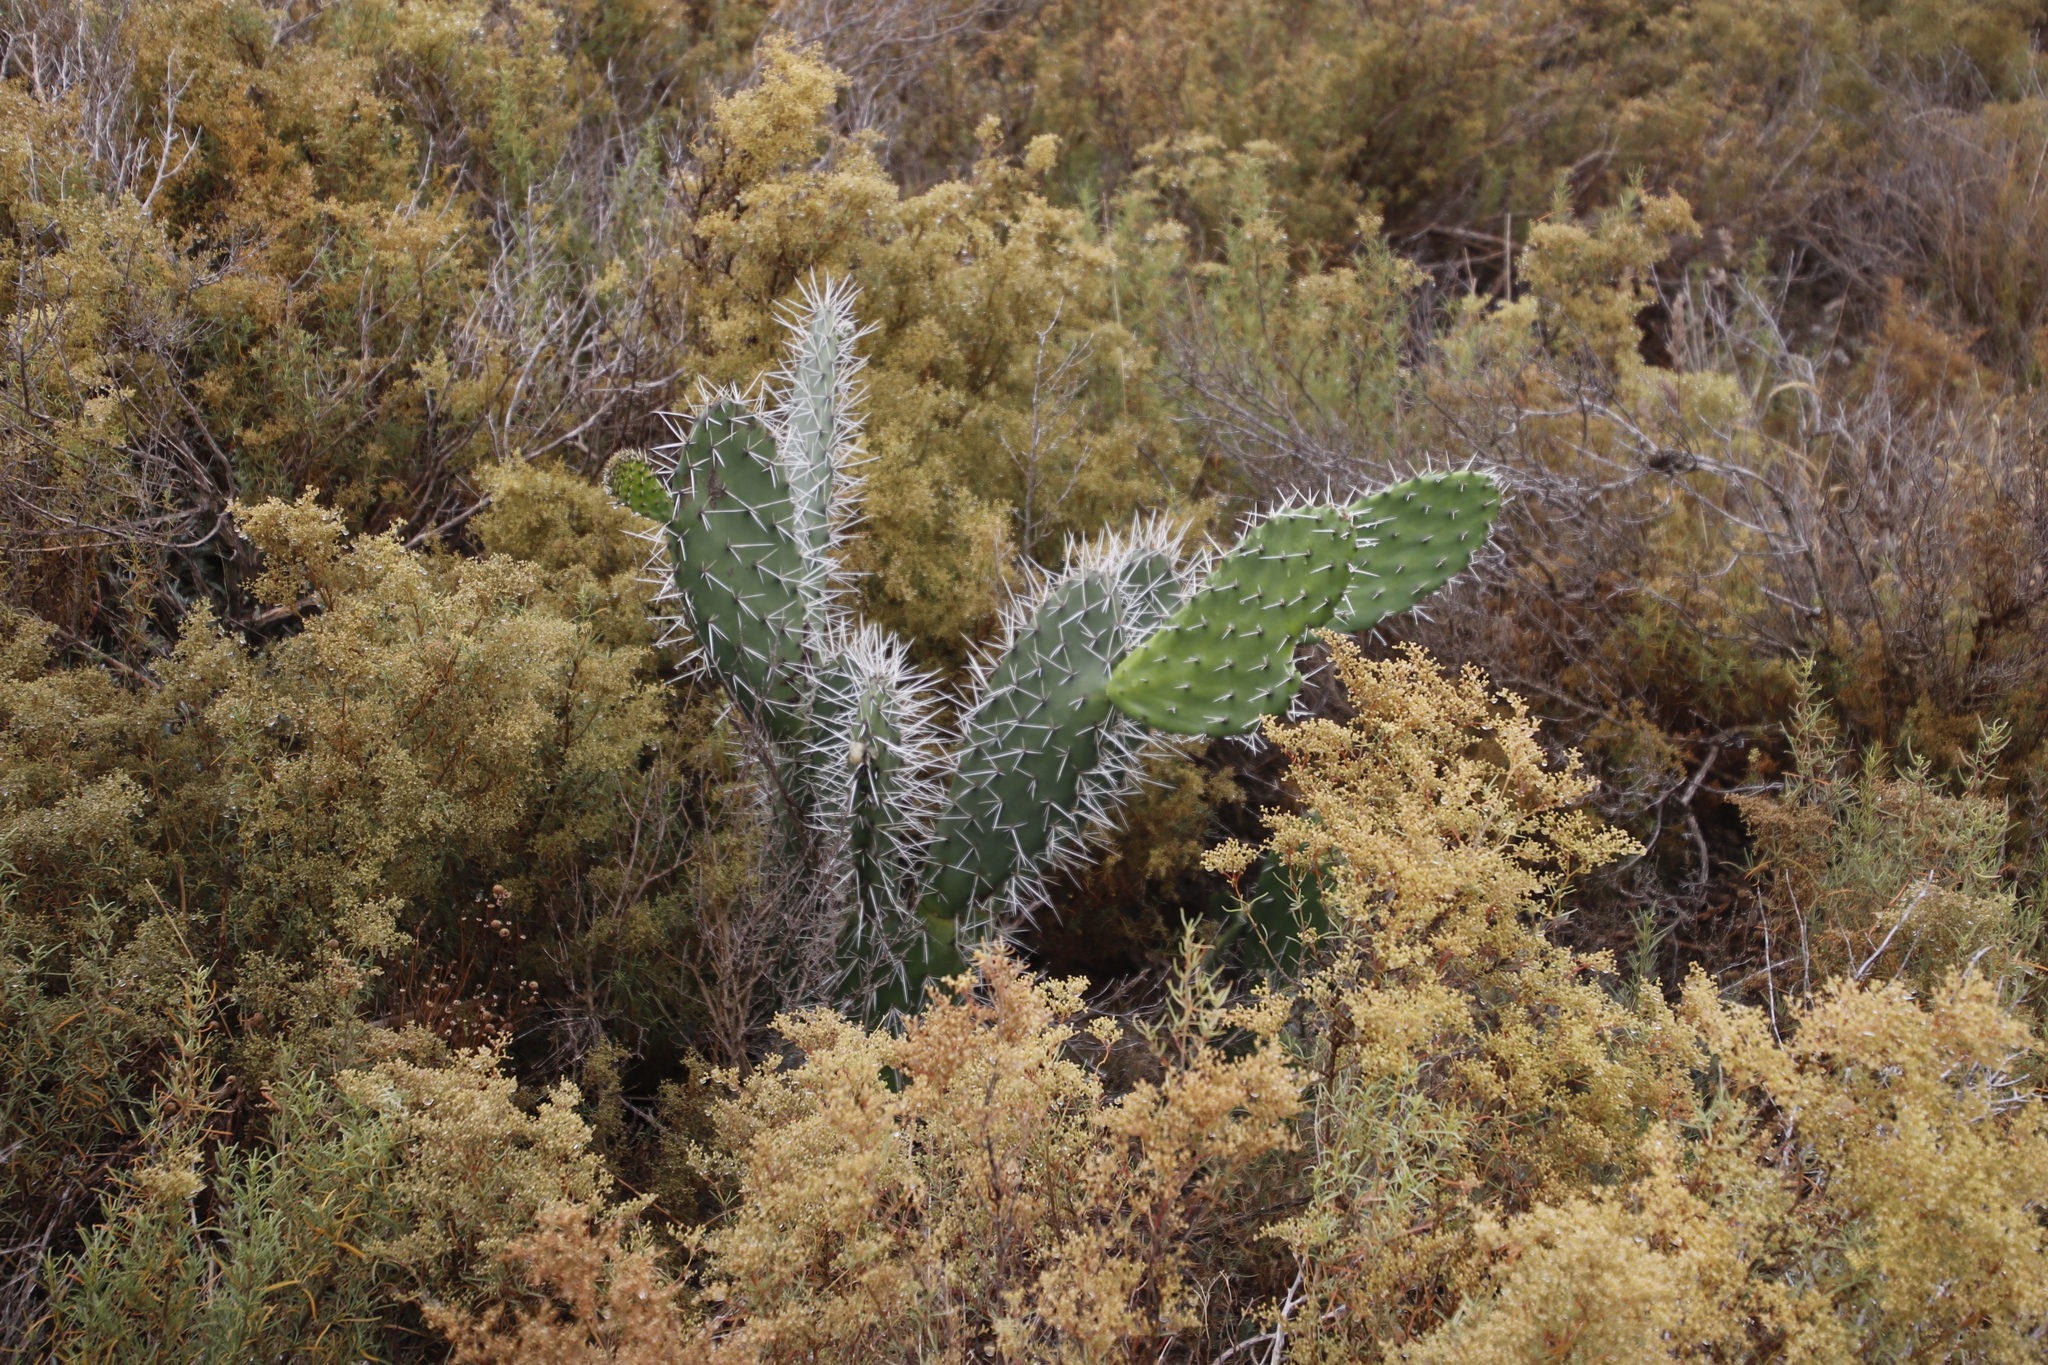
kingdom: Plantae
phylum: Tracheophyta
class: Magnoliopsida
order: Caryophyllales
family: Cactaceae
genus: Opuntia
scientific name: Opuntia ficus-indica
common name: Barbary fig
